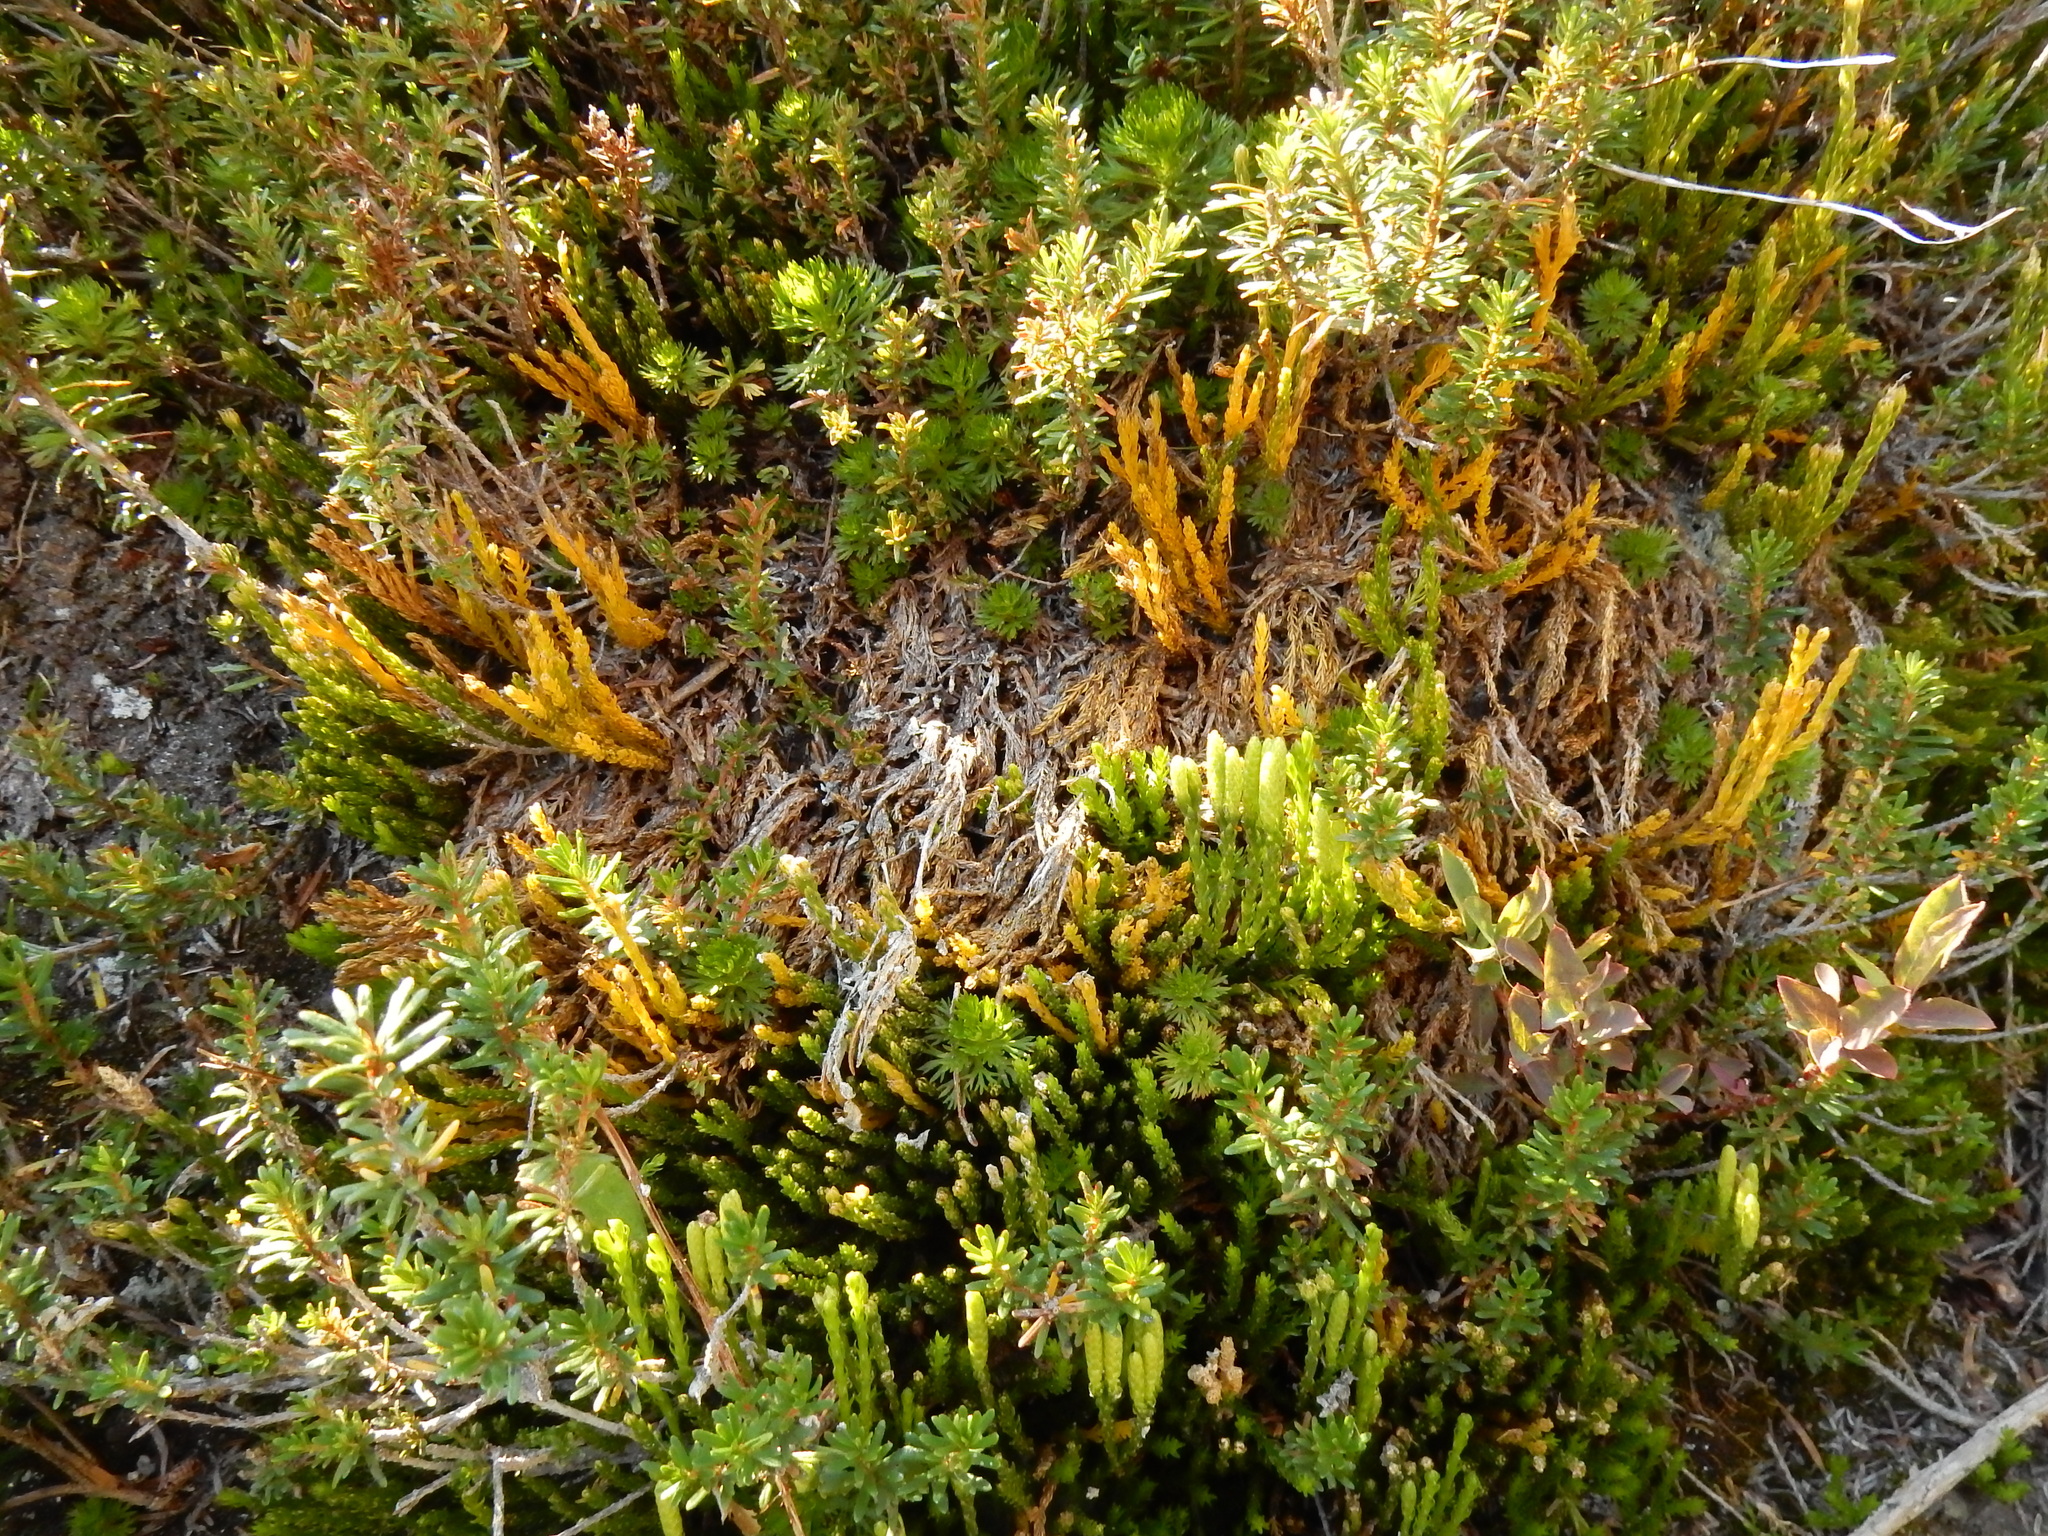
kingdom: Plantae
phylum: Tracheophyta
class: Lycopodiopsida
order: Lycopodiales
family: Lycopodiaceae
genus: Diphasiastrum
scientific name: Diphasiastrum sitchense
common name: Alaska clubmoss
